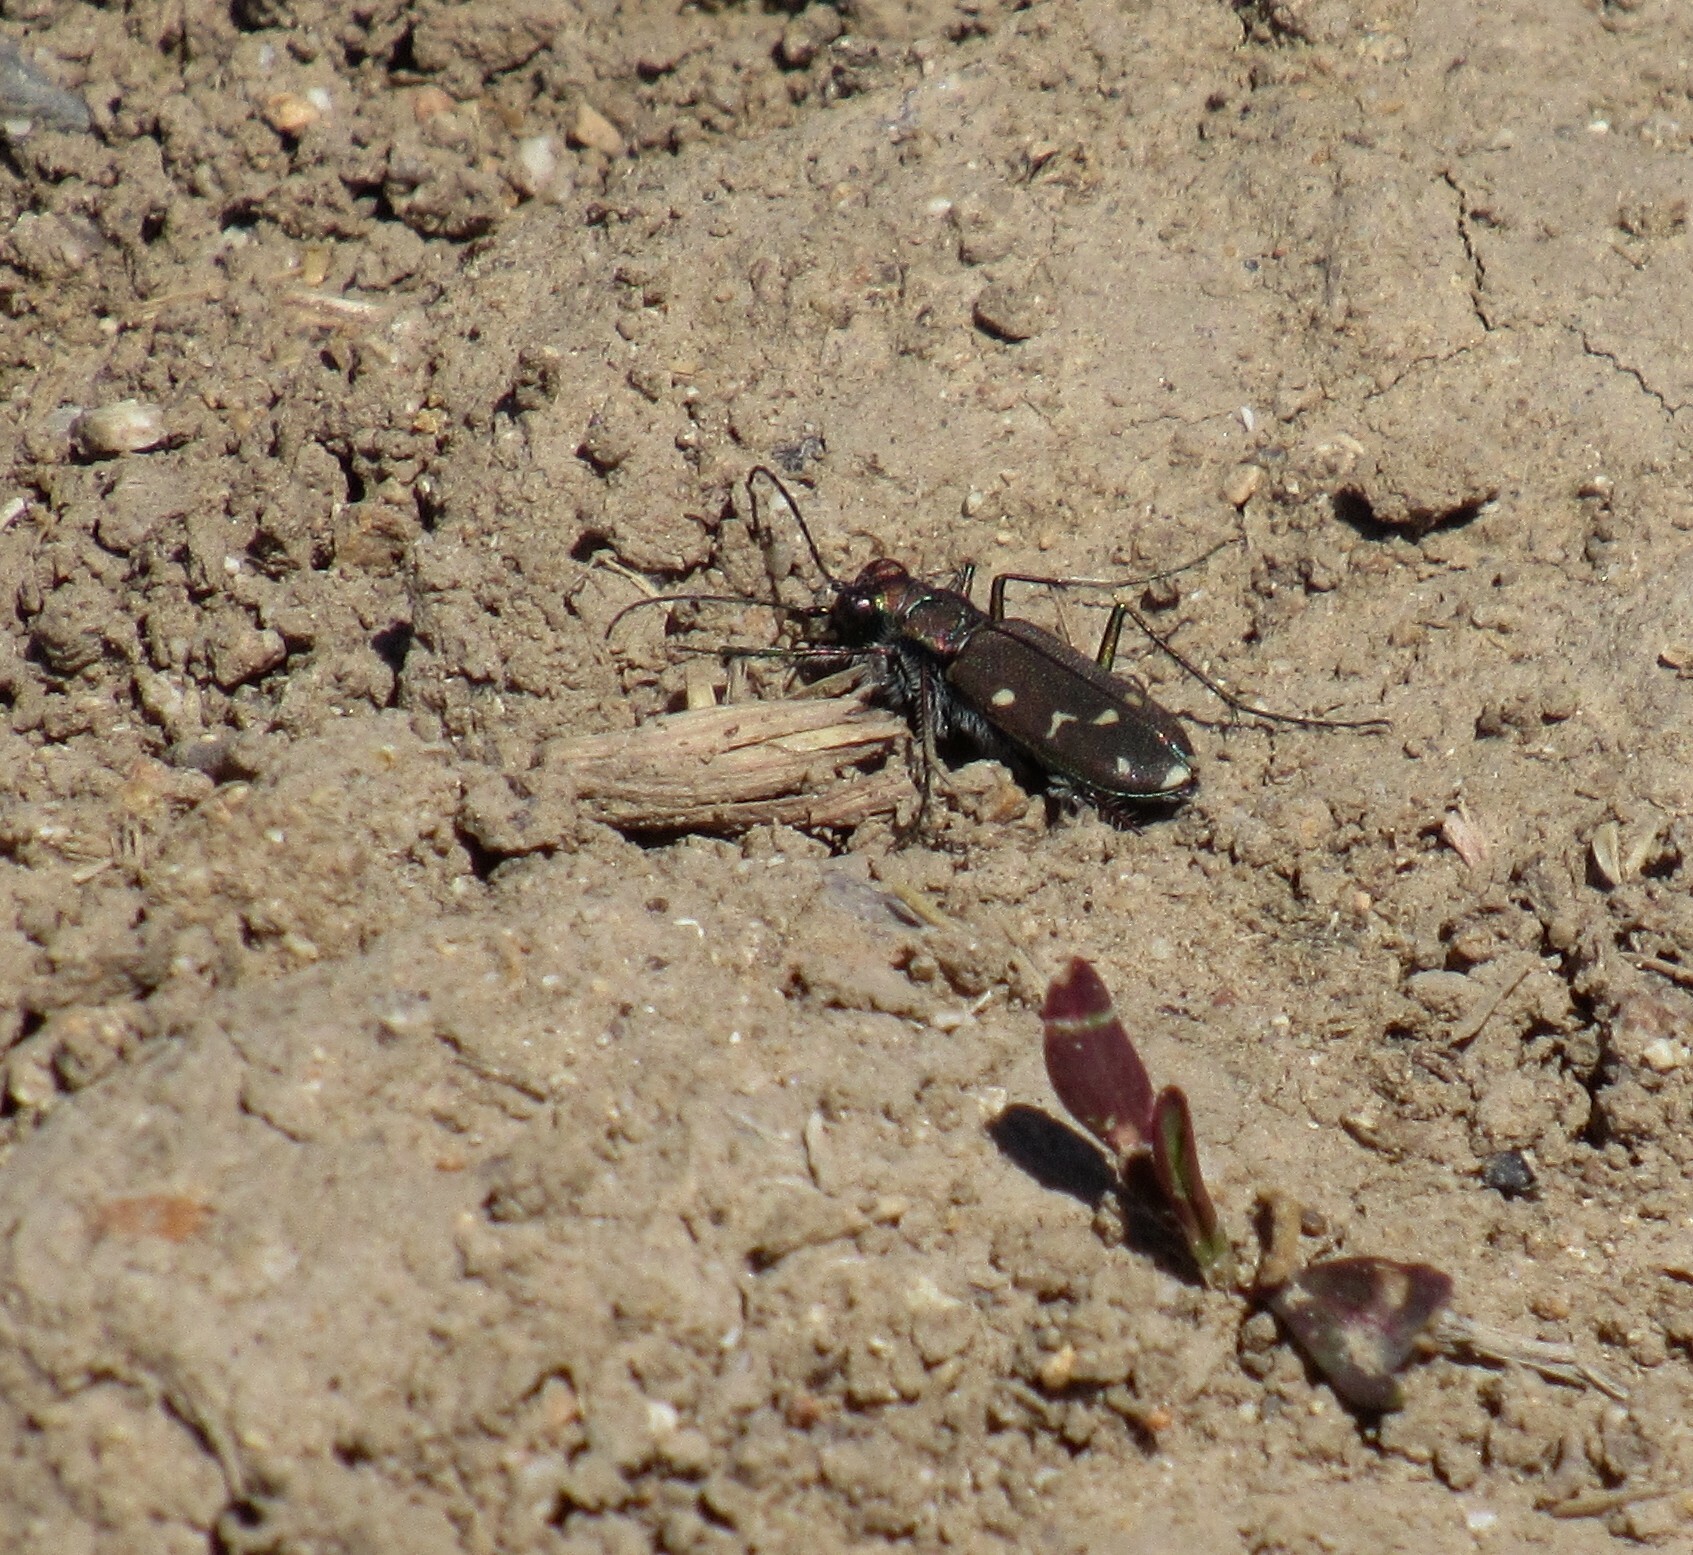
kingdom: Animalia
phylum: Arthropoda
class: Insecta
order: Coleoptera
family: Carabidae
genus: Cicindela
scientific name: Cicindela oregona
